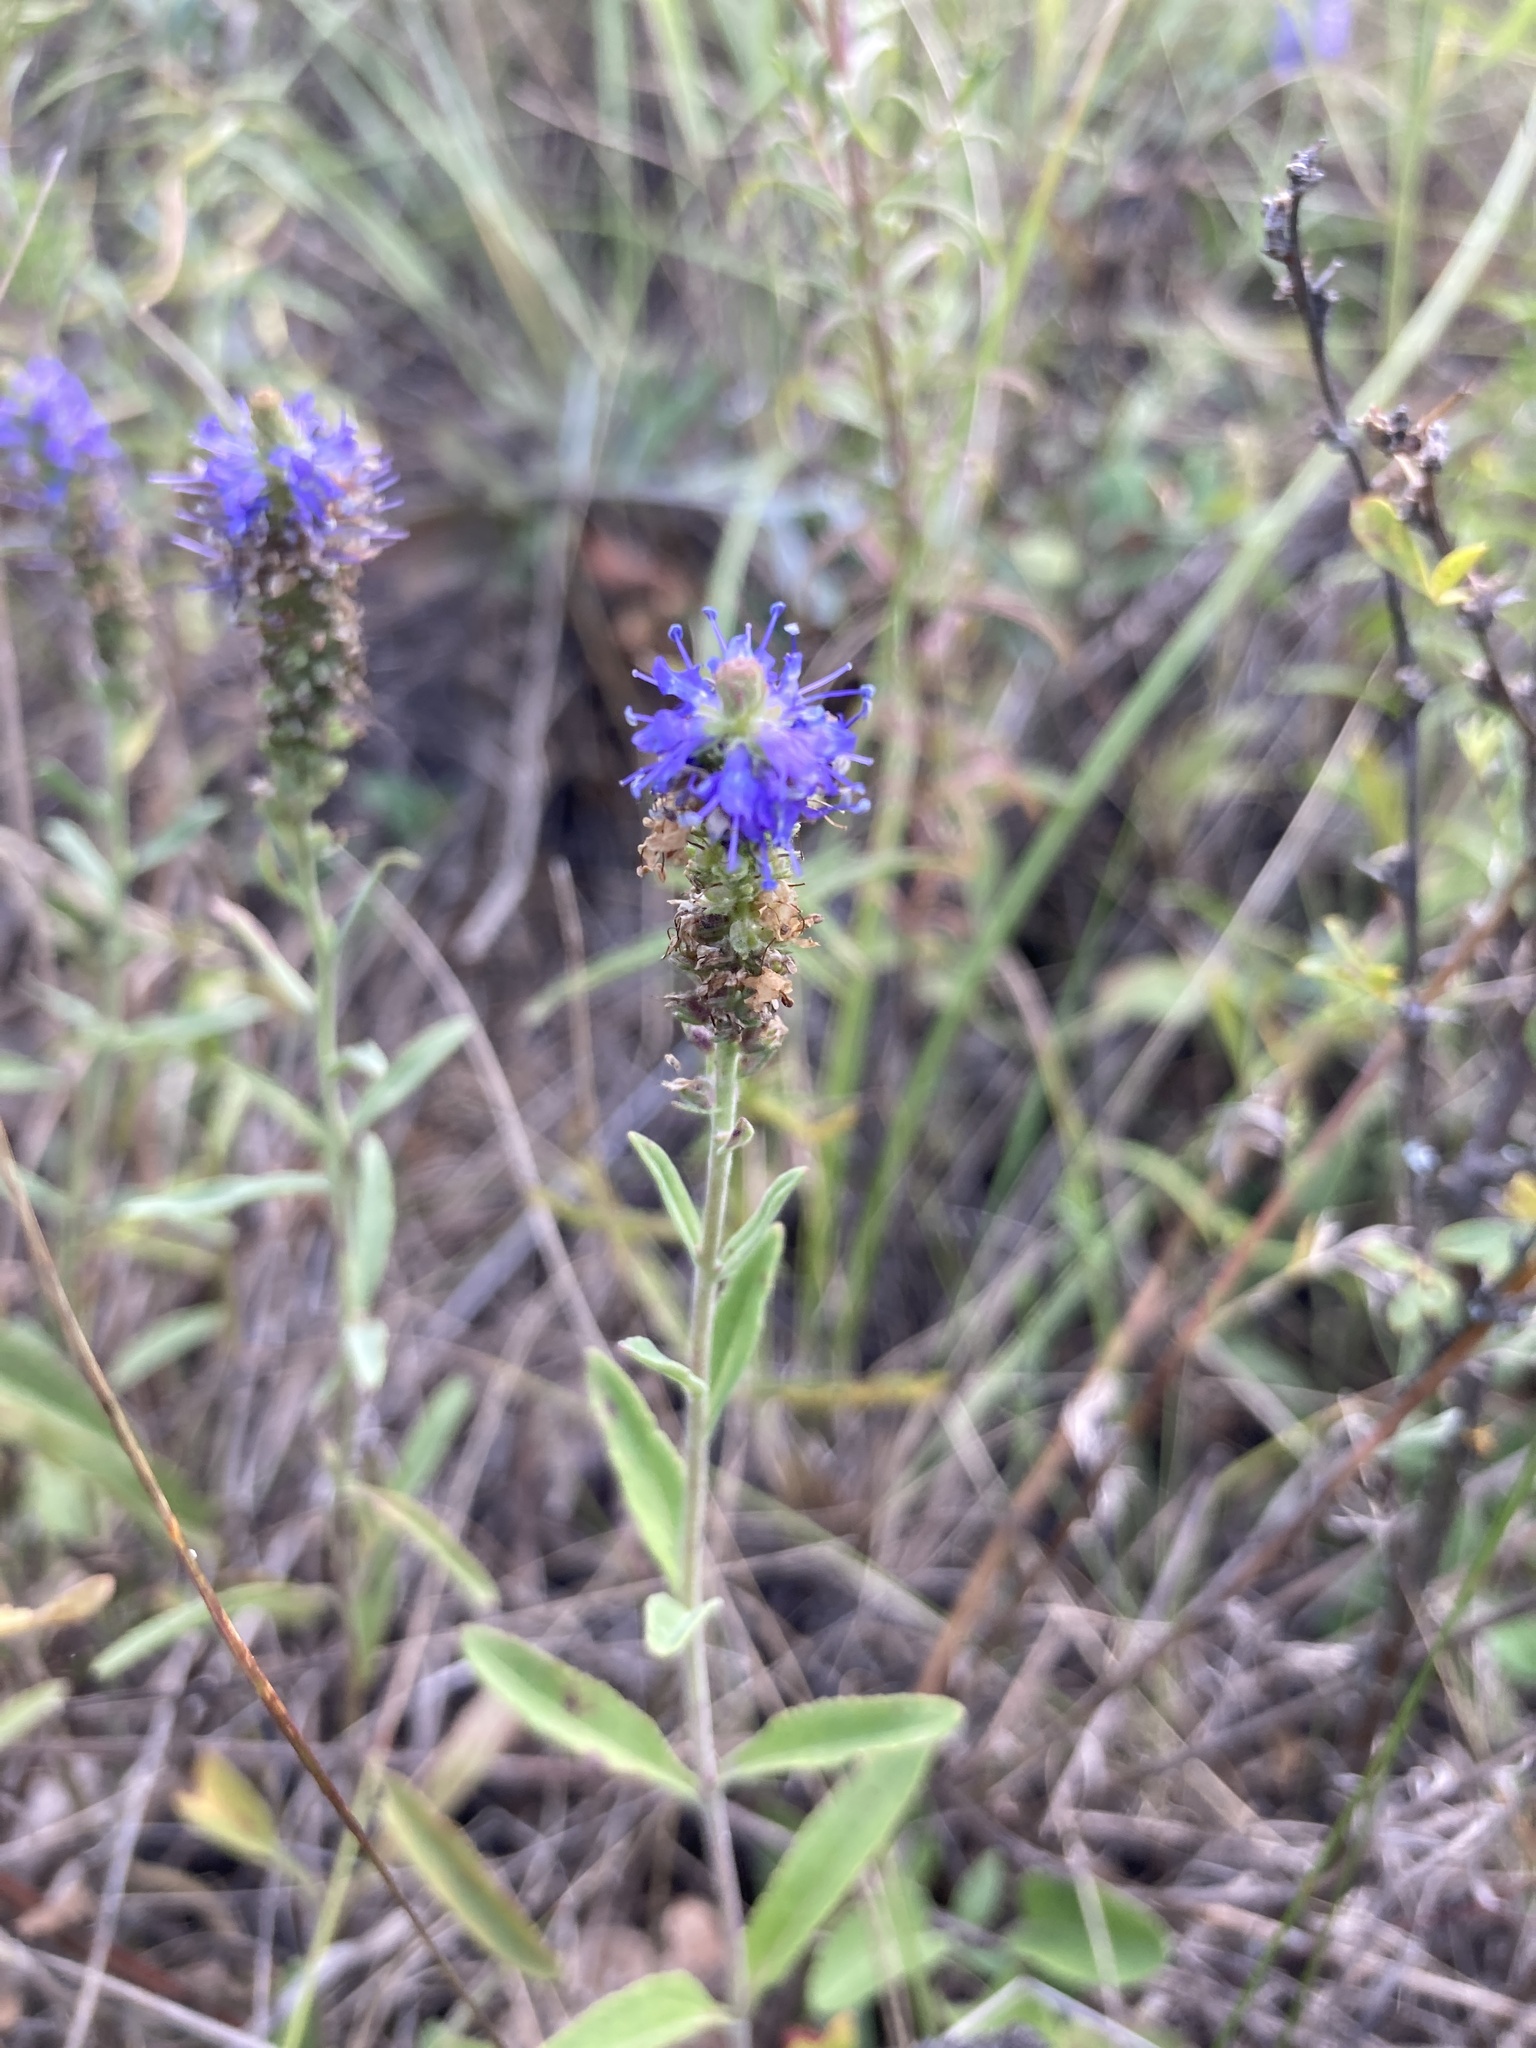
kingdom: Plantae
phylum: Tracheophyta
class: Magnoliopsida
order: Lamiales
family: Plantaginaceae
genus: Veronica
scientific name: Veronica spicata
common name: Spiked speedwell
